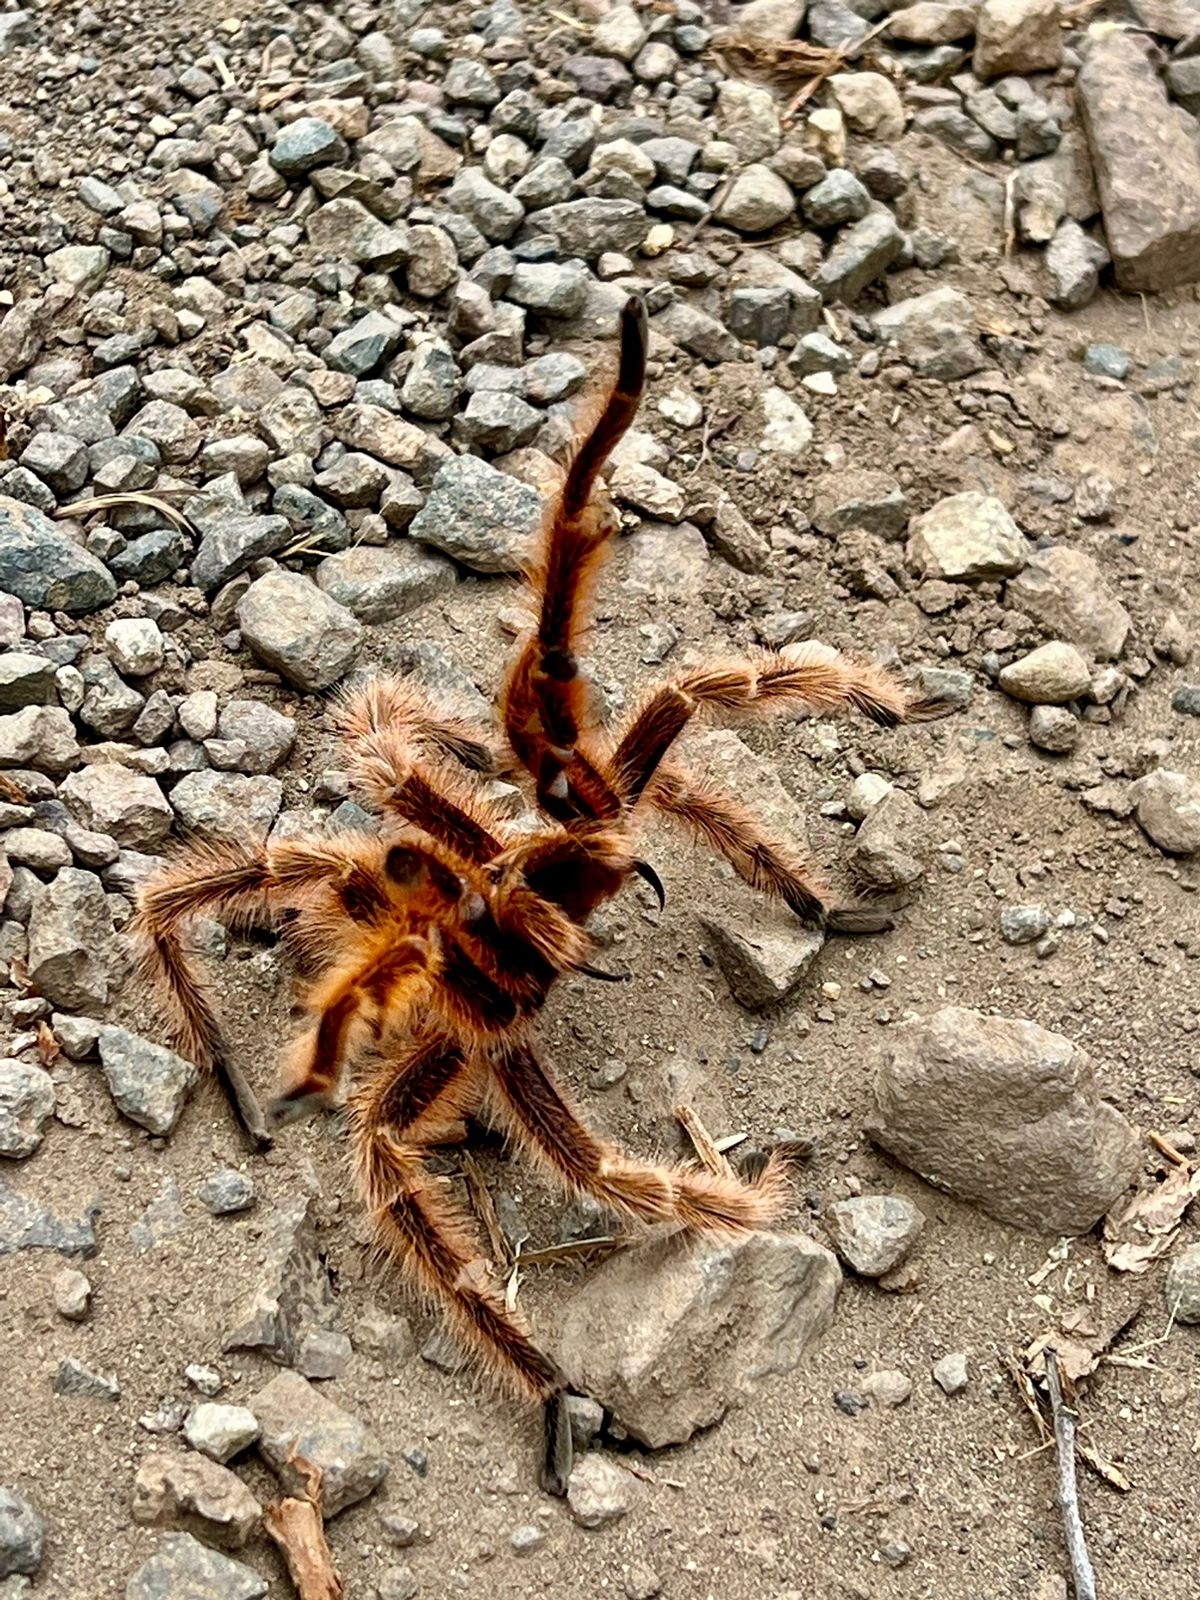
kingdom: Animalia
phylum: Arthropoda
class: Arachnida
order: Araneae
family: Theraphosidae
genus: Grammostola
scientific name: Grammostola rosea
